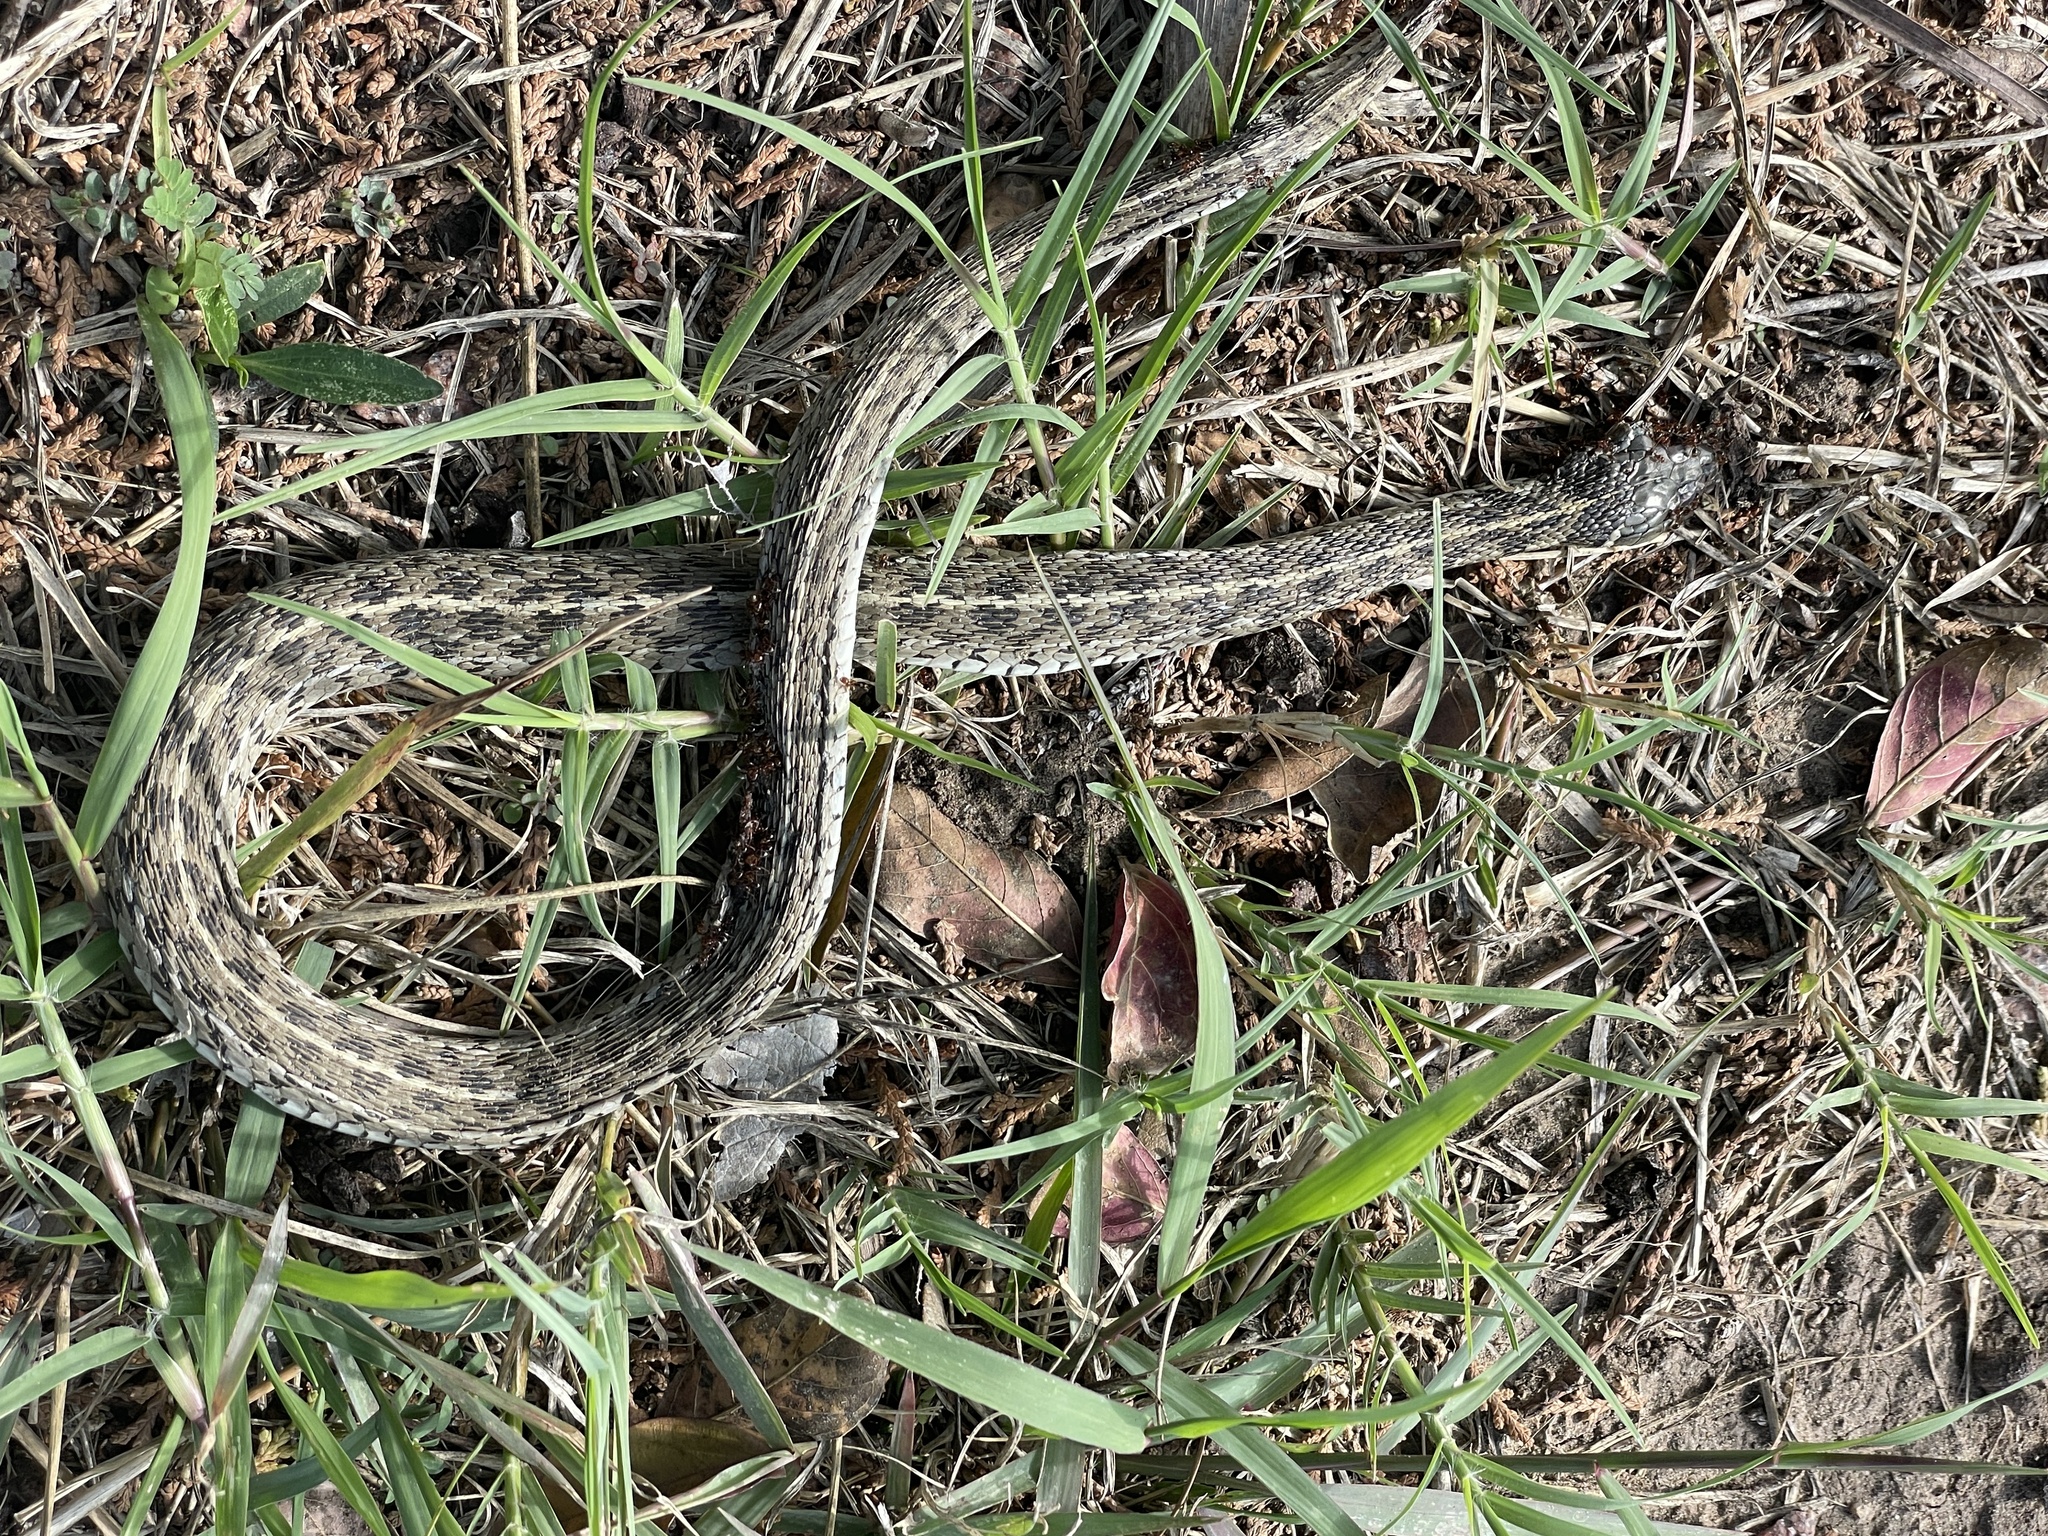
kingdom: Animalia
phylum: Chordata
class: Squamata
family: Colubridae
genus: Thamnophis
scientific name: Thamnophis marcianus
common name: Checkered garter snake
